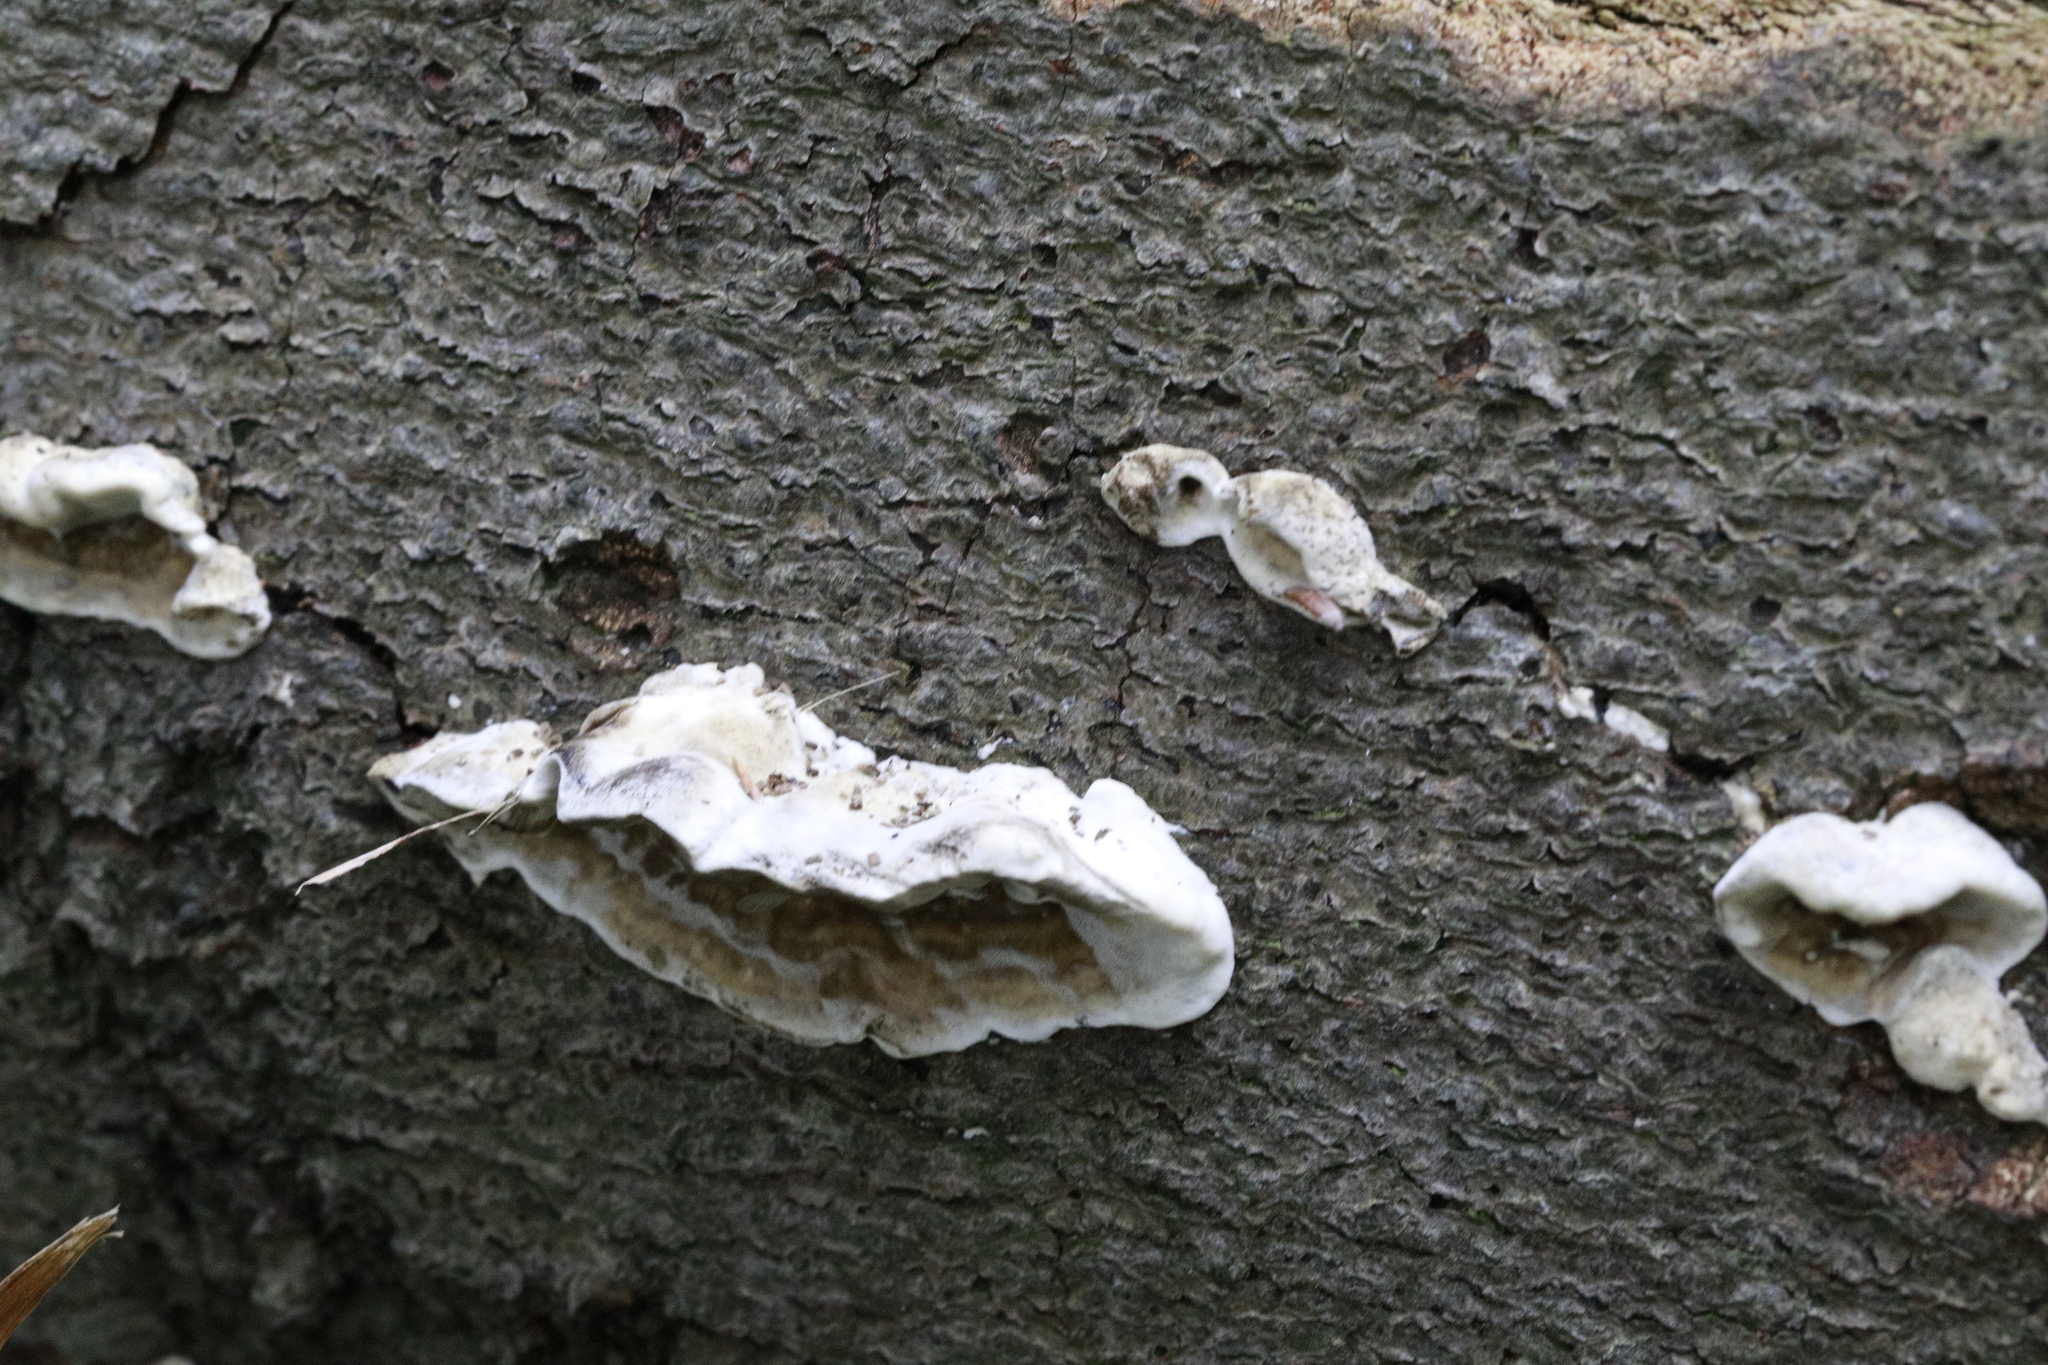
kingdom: Fungi
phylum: Basidiomycota
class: Agaricomycetes
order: Polyporales
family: Phanerochaetaceae
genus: Bjerkandera
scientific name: Bjerkandera adusta
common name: Smoky bracket
